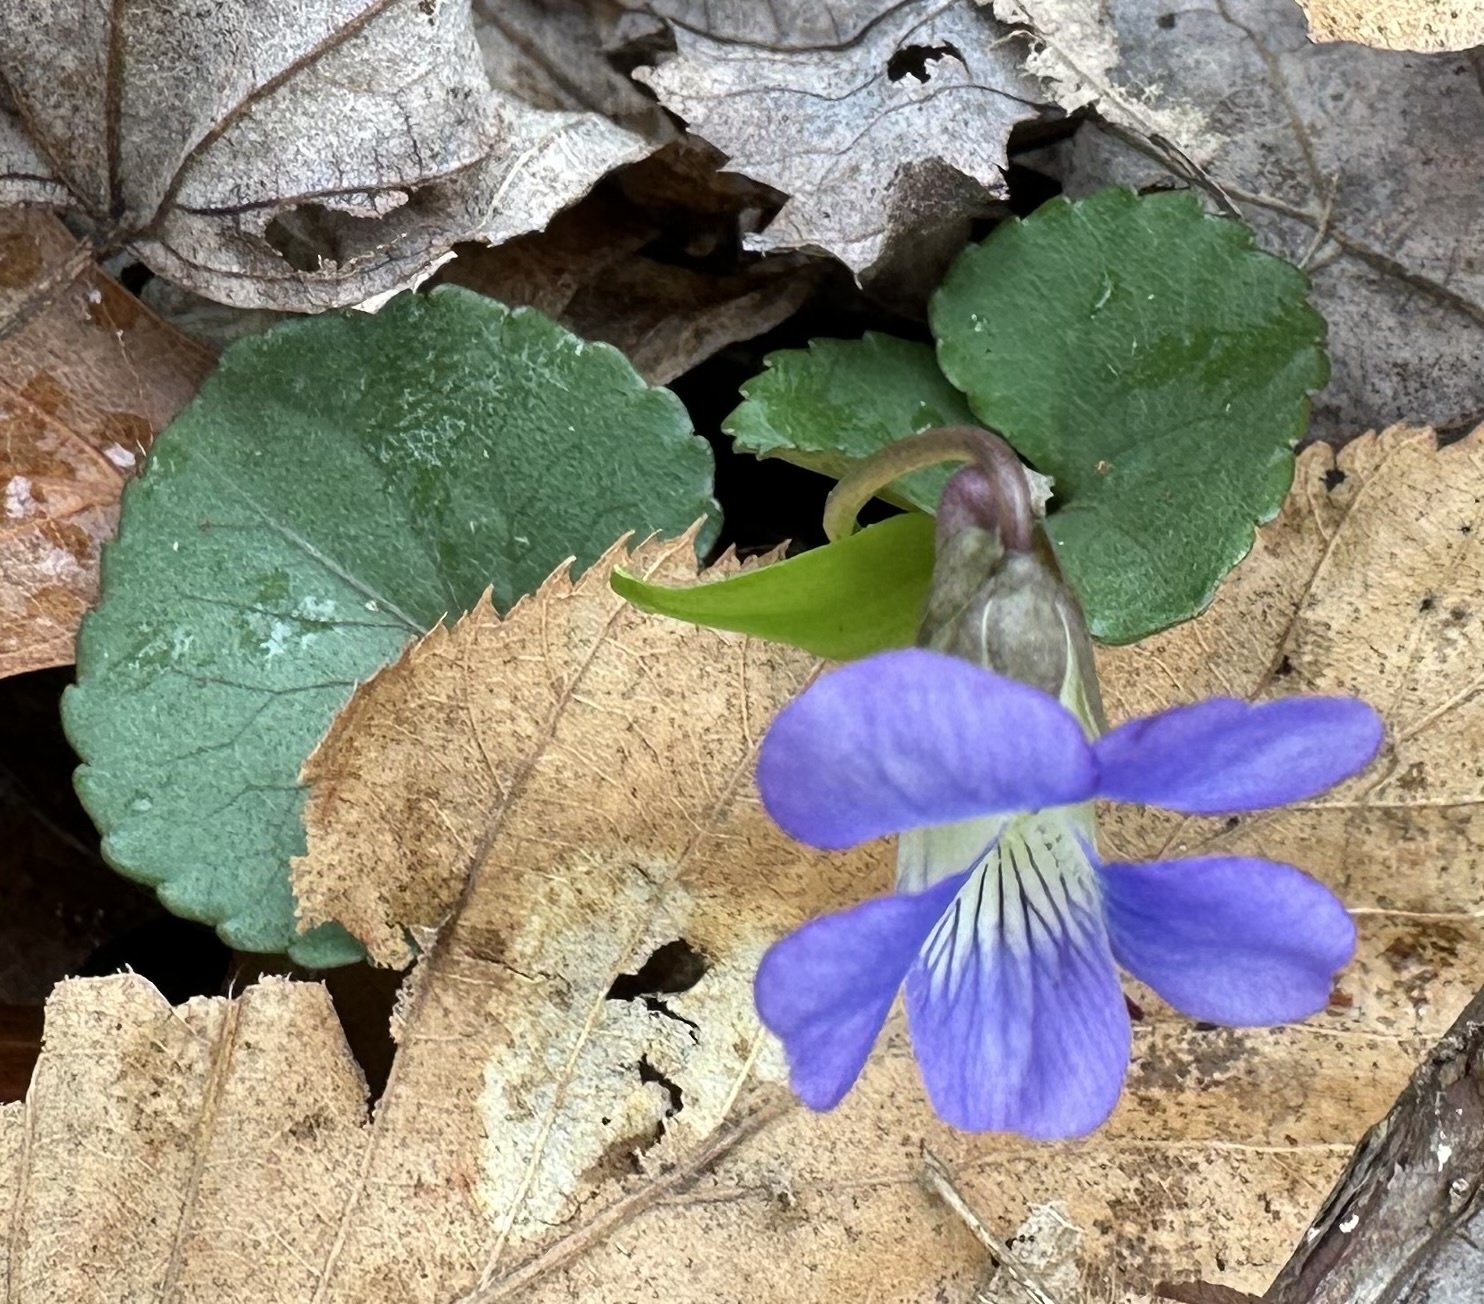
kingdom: Plantae
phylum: Tracheophyta
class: Magnoliopsida
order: Malpighiales
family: Violaceae
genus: Viola
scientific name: Viola sororia
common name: Dooryard violet
